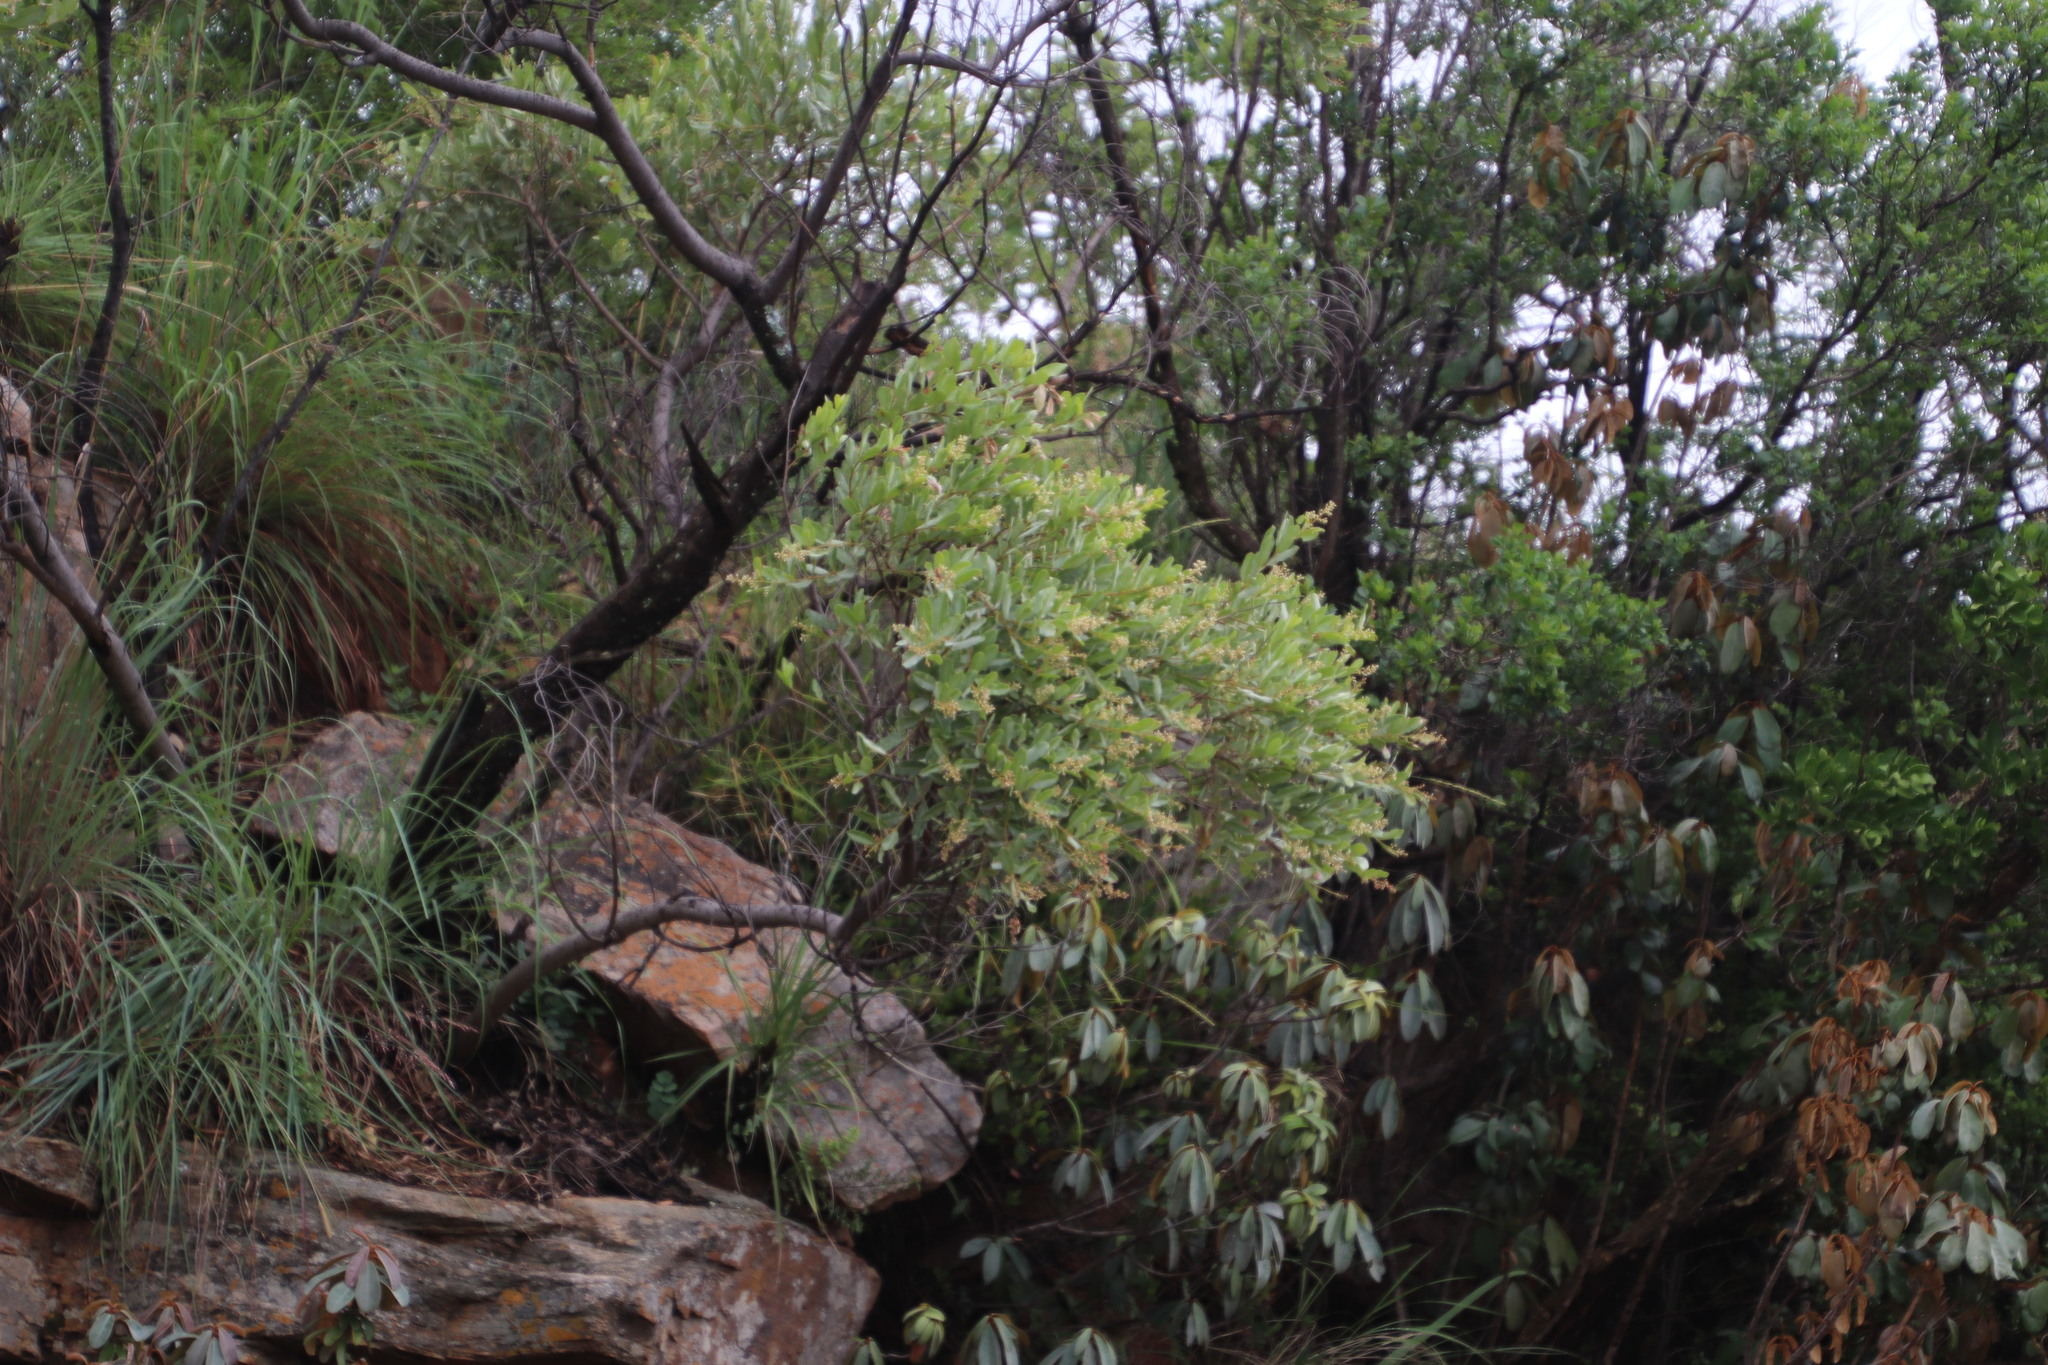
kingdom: Plantae
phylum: Tracheophyta
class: Magnoliopsida
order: Sapindales
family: Anacardiaceae
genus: Ozoroa
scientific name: Ozoroa paniculosa
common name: Bushveld ozoroa
